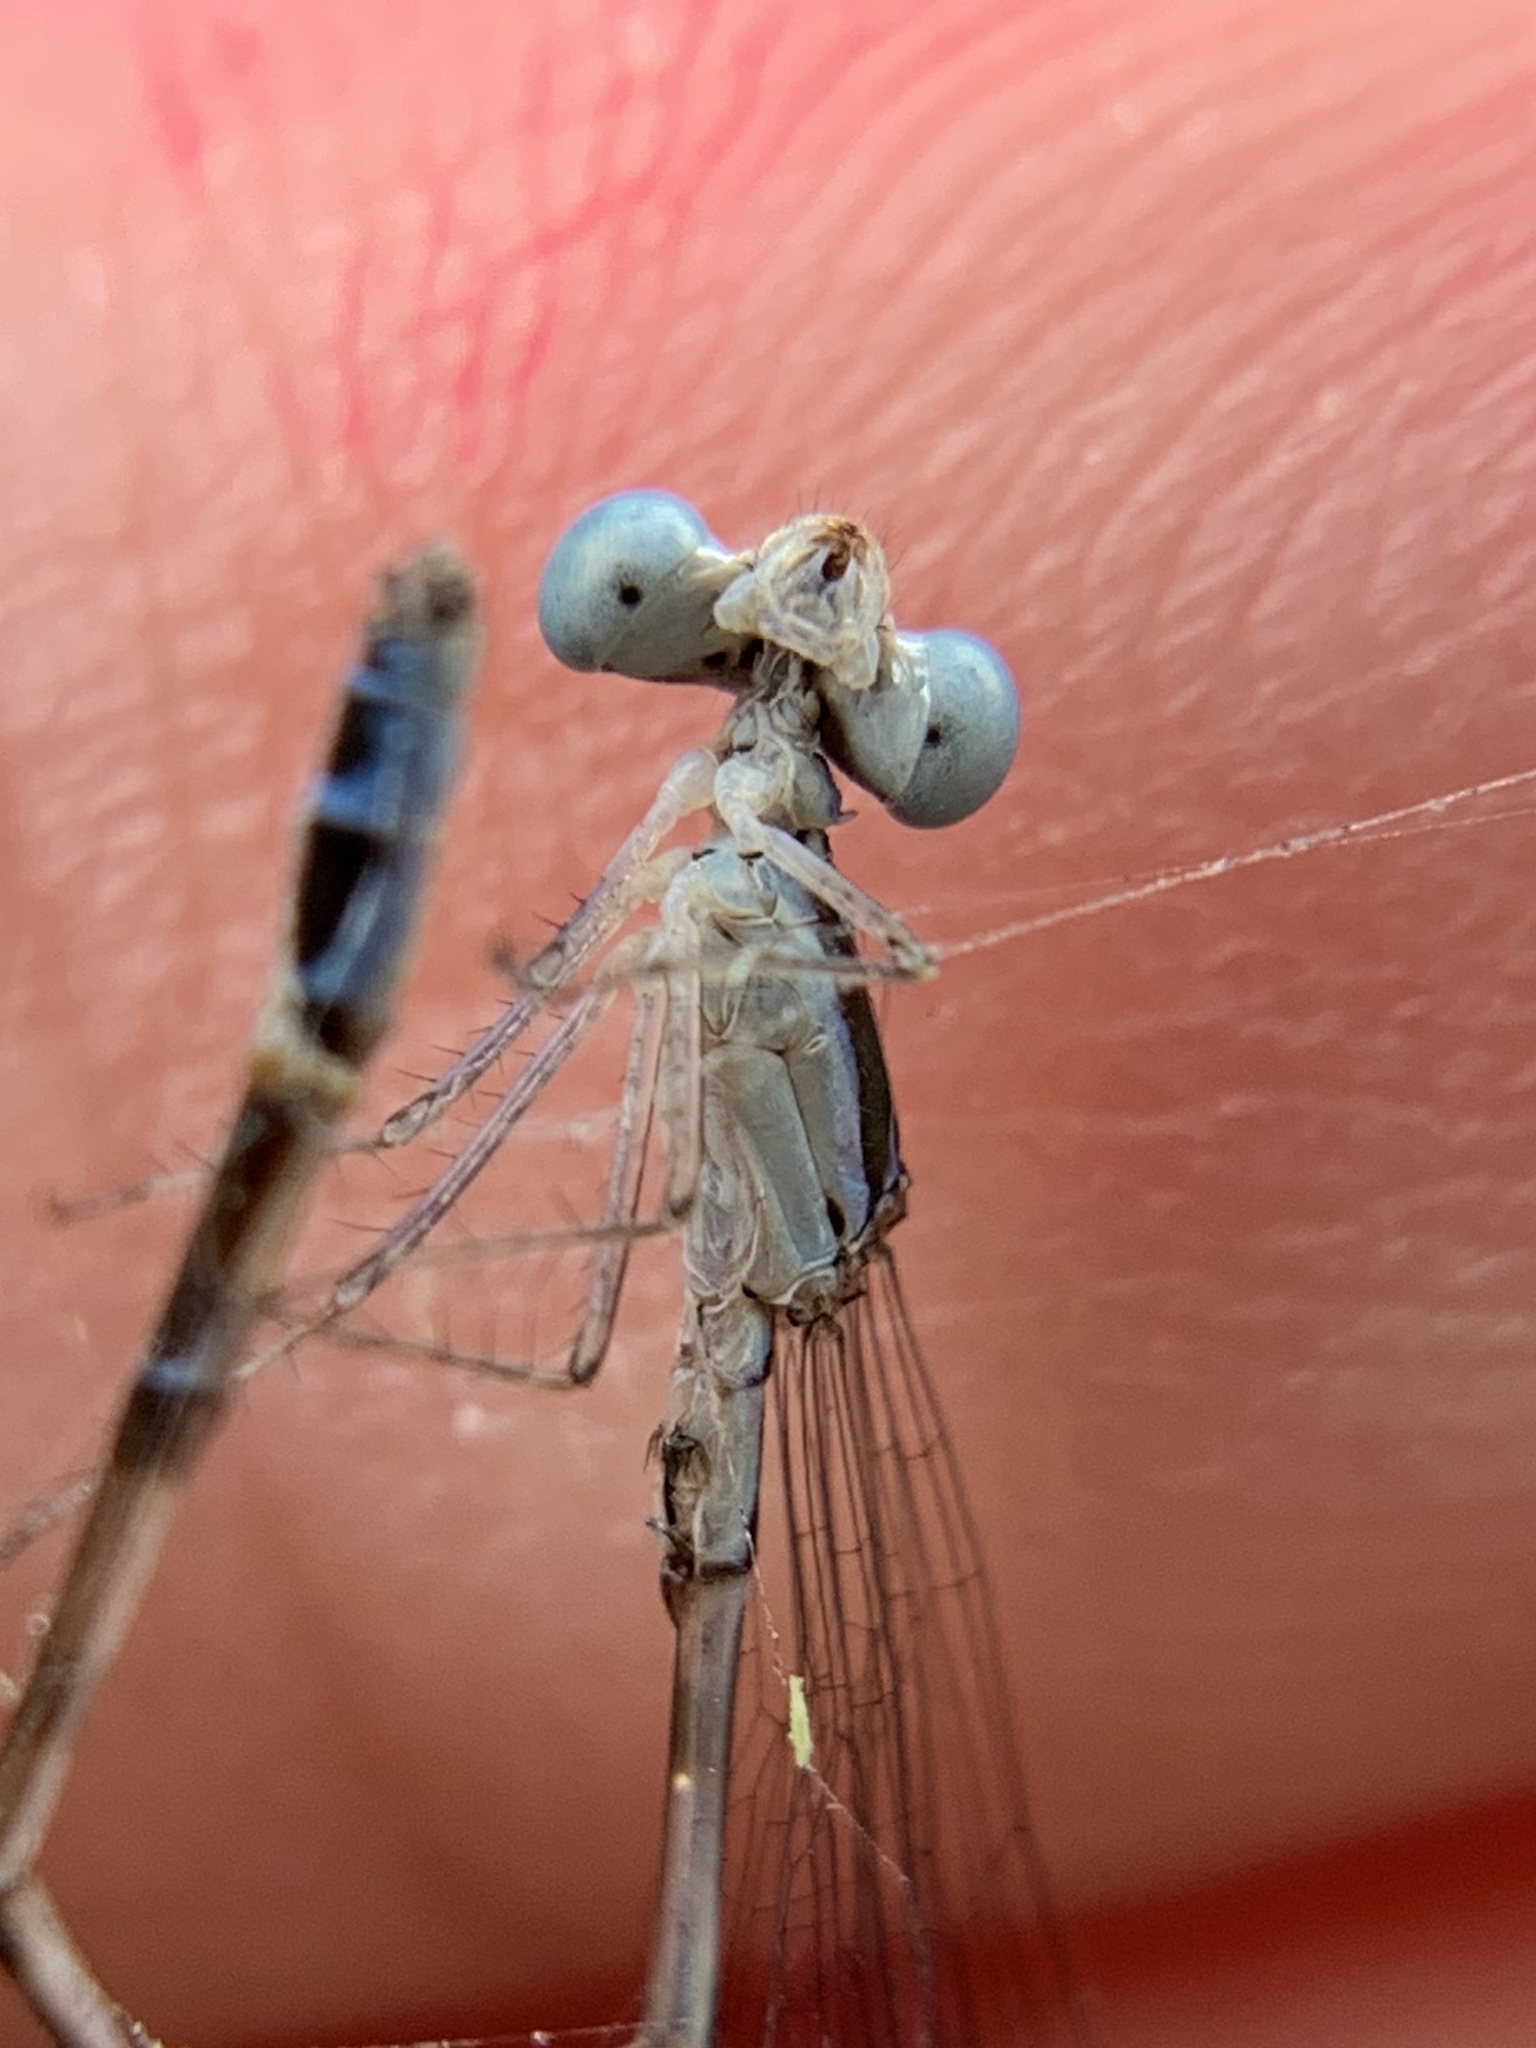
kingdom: Animalia
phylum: Arthropoda
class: Insecta
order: Odonata
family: Coenagrionidae
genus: Nehalennia
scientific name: Nehalennia pallidula
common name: Everglades sprite
